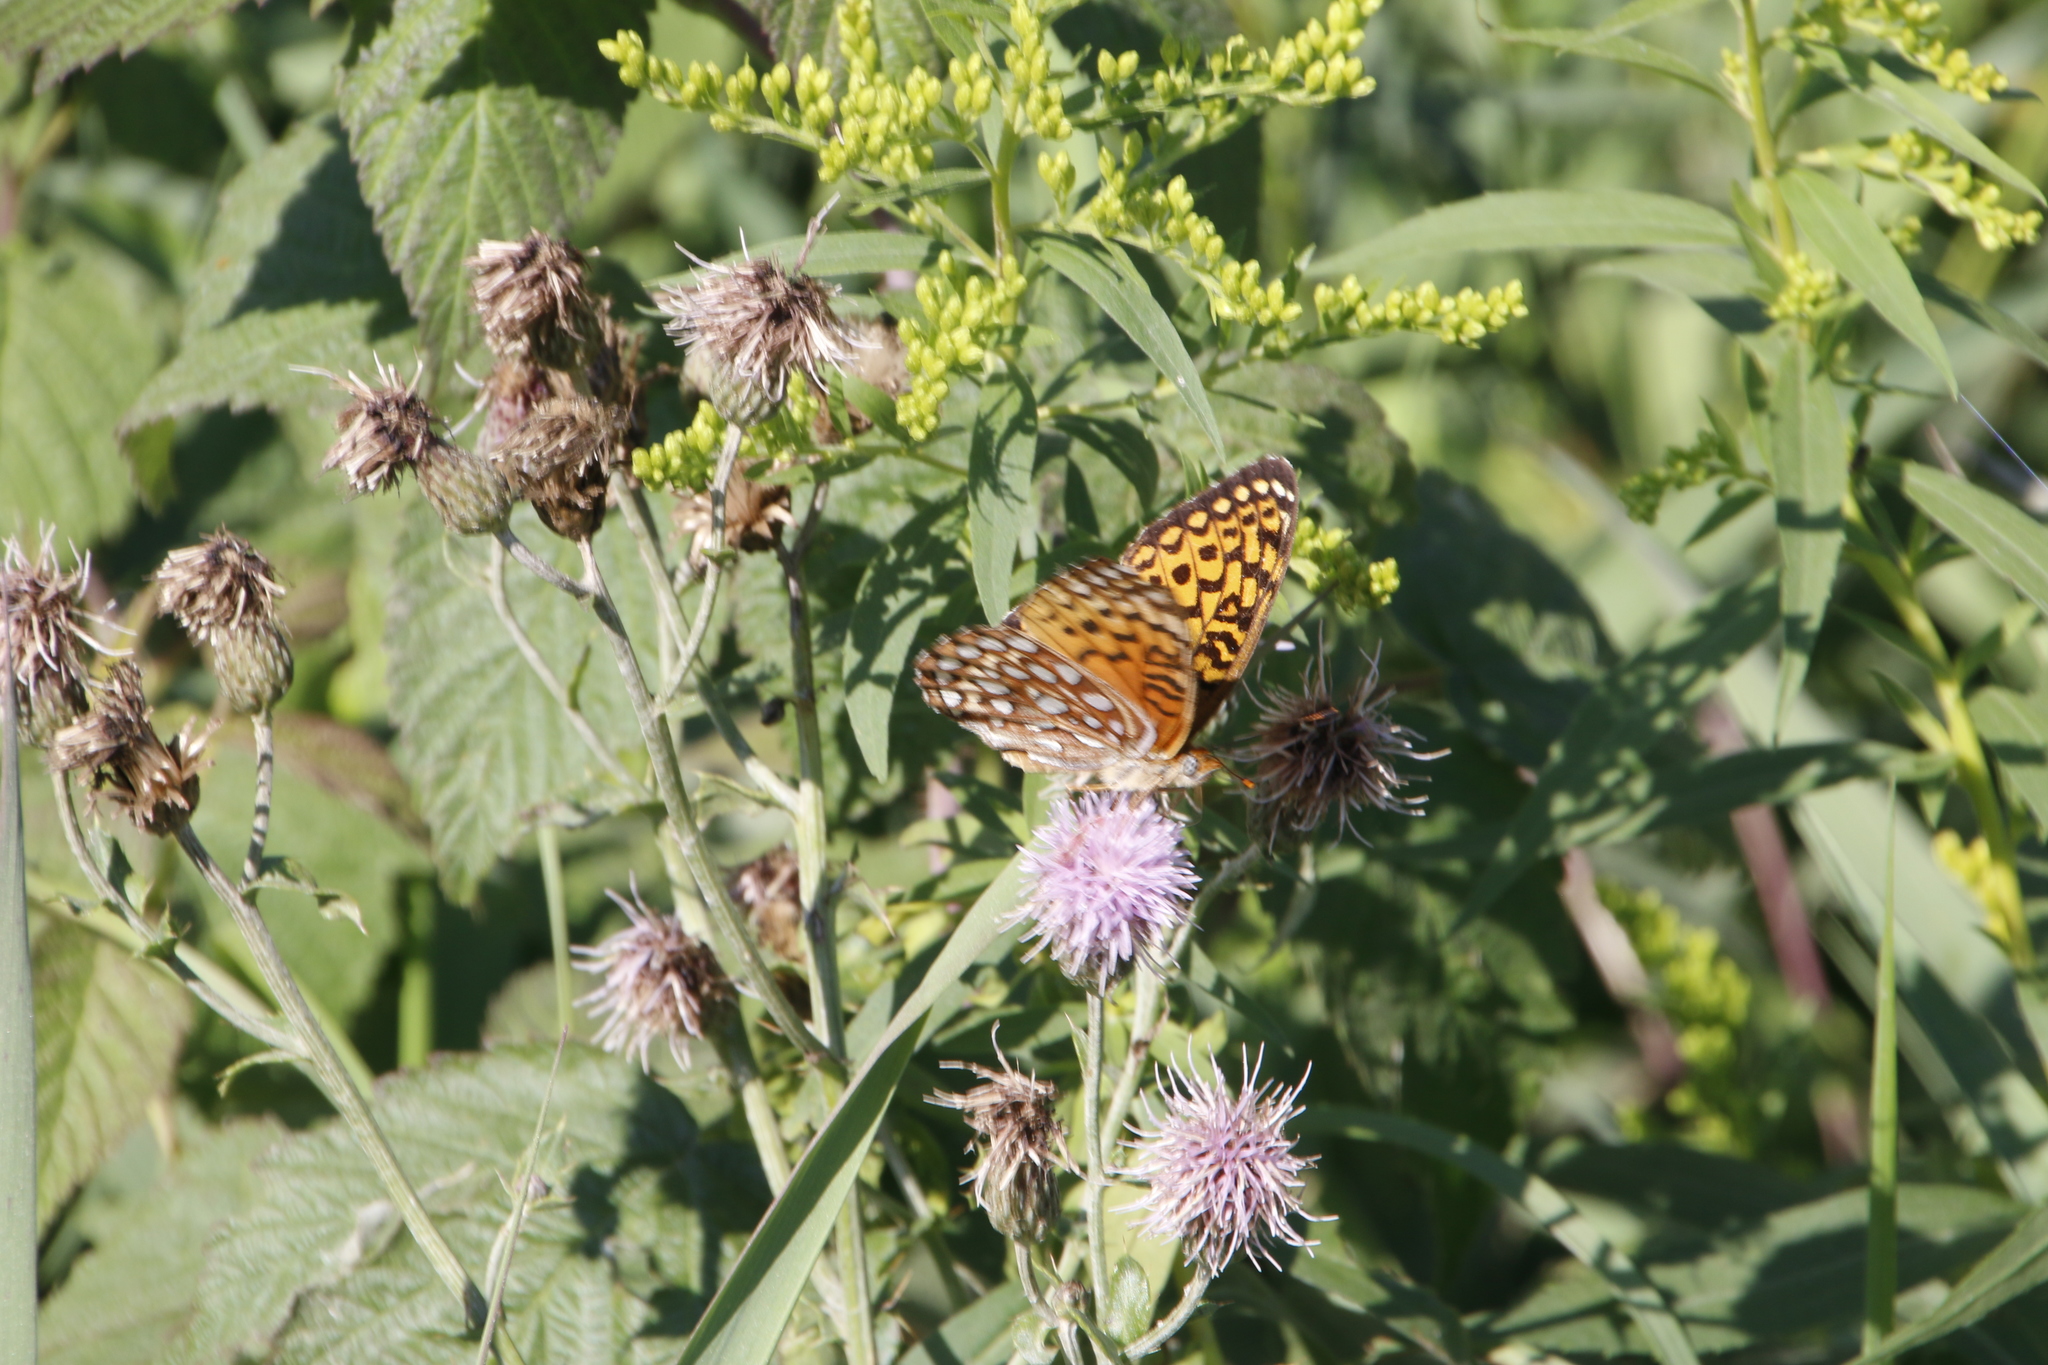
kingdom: Animalia
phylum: Arthropoda
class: Insecta
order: Lepidoptera
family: Nymphalidae
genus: Speyeria
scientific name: Speyeria atlantis
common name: Atlantis fritillary
